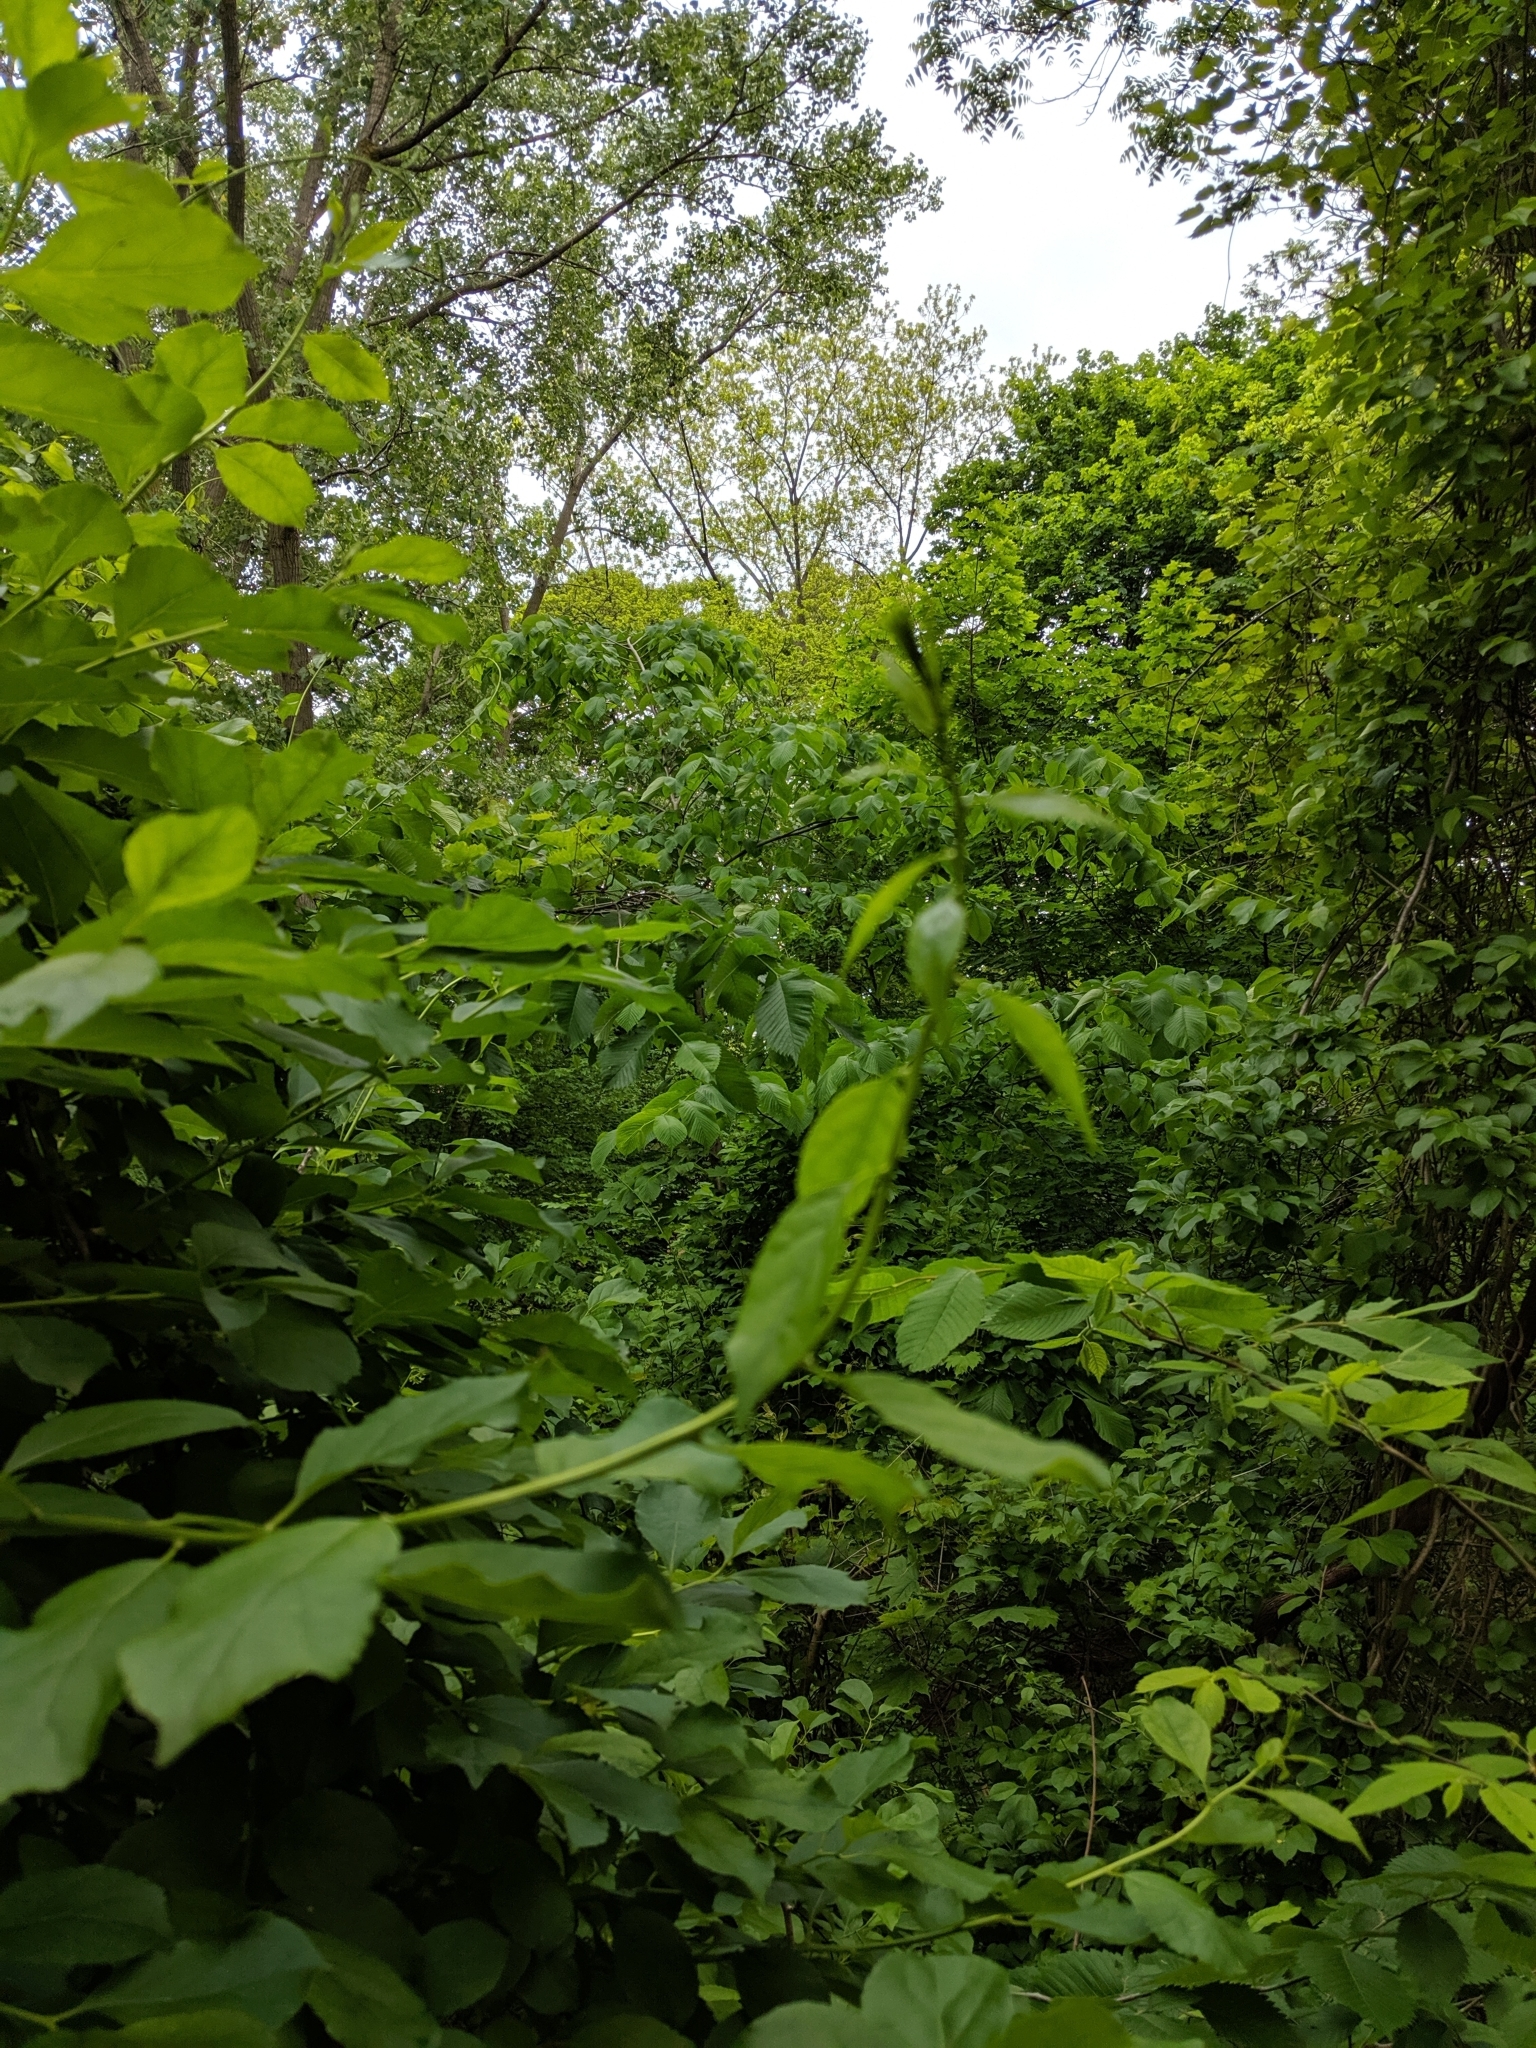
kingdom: Plantae
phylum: Tracheophyta
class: Magnoliopsida
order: Celastrales
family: Celastraceae
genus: Celastrus
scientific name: Celastrus orbiculatus
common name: Oriental bittersweet
